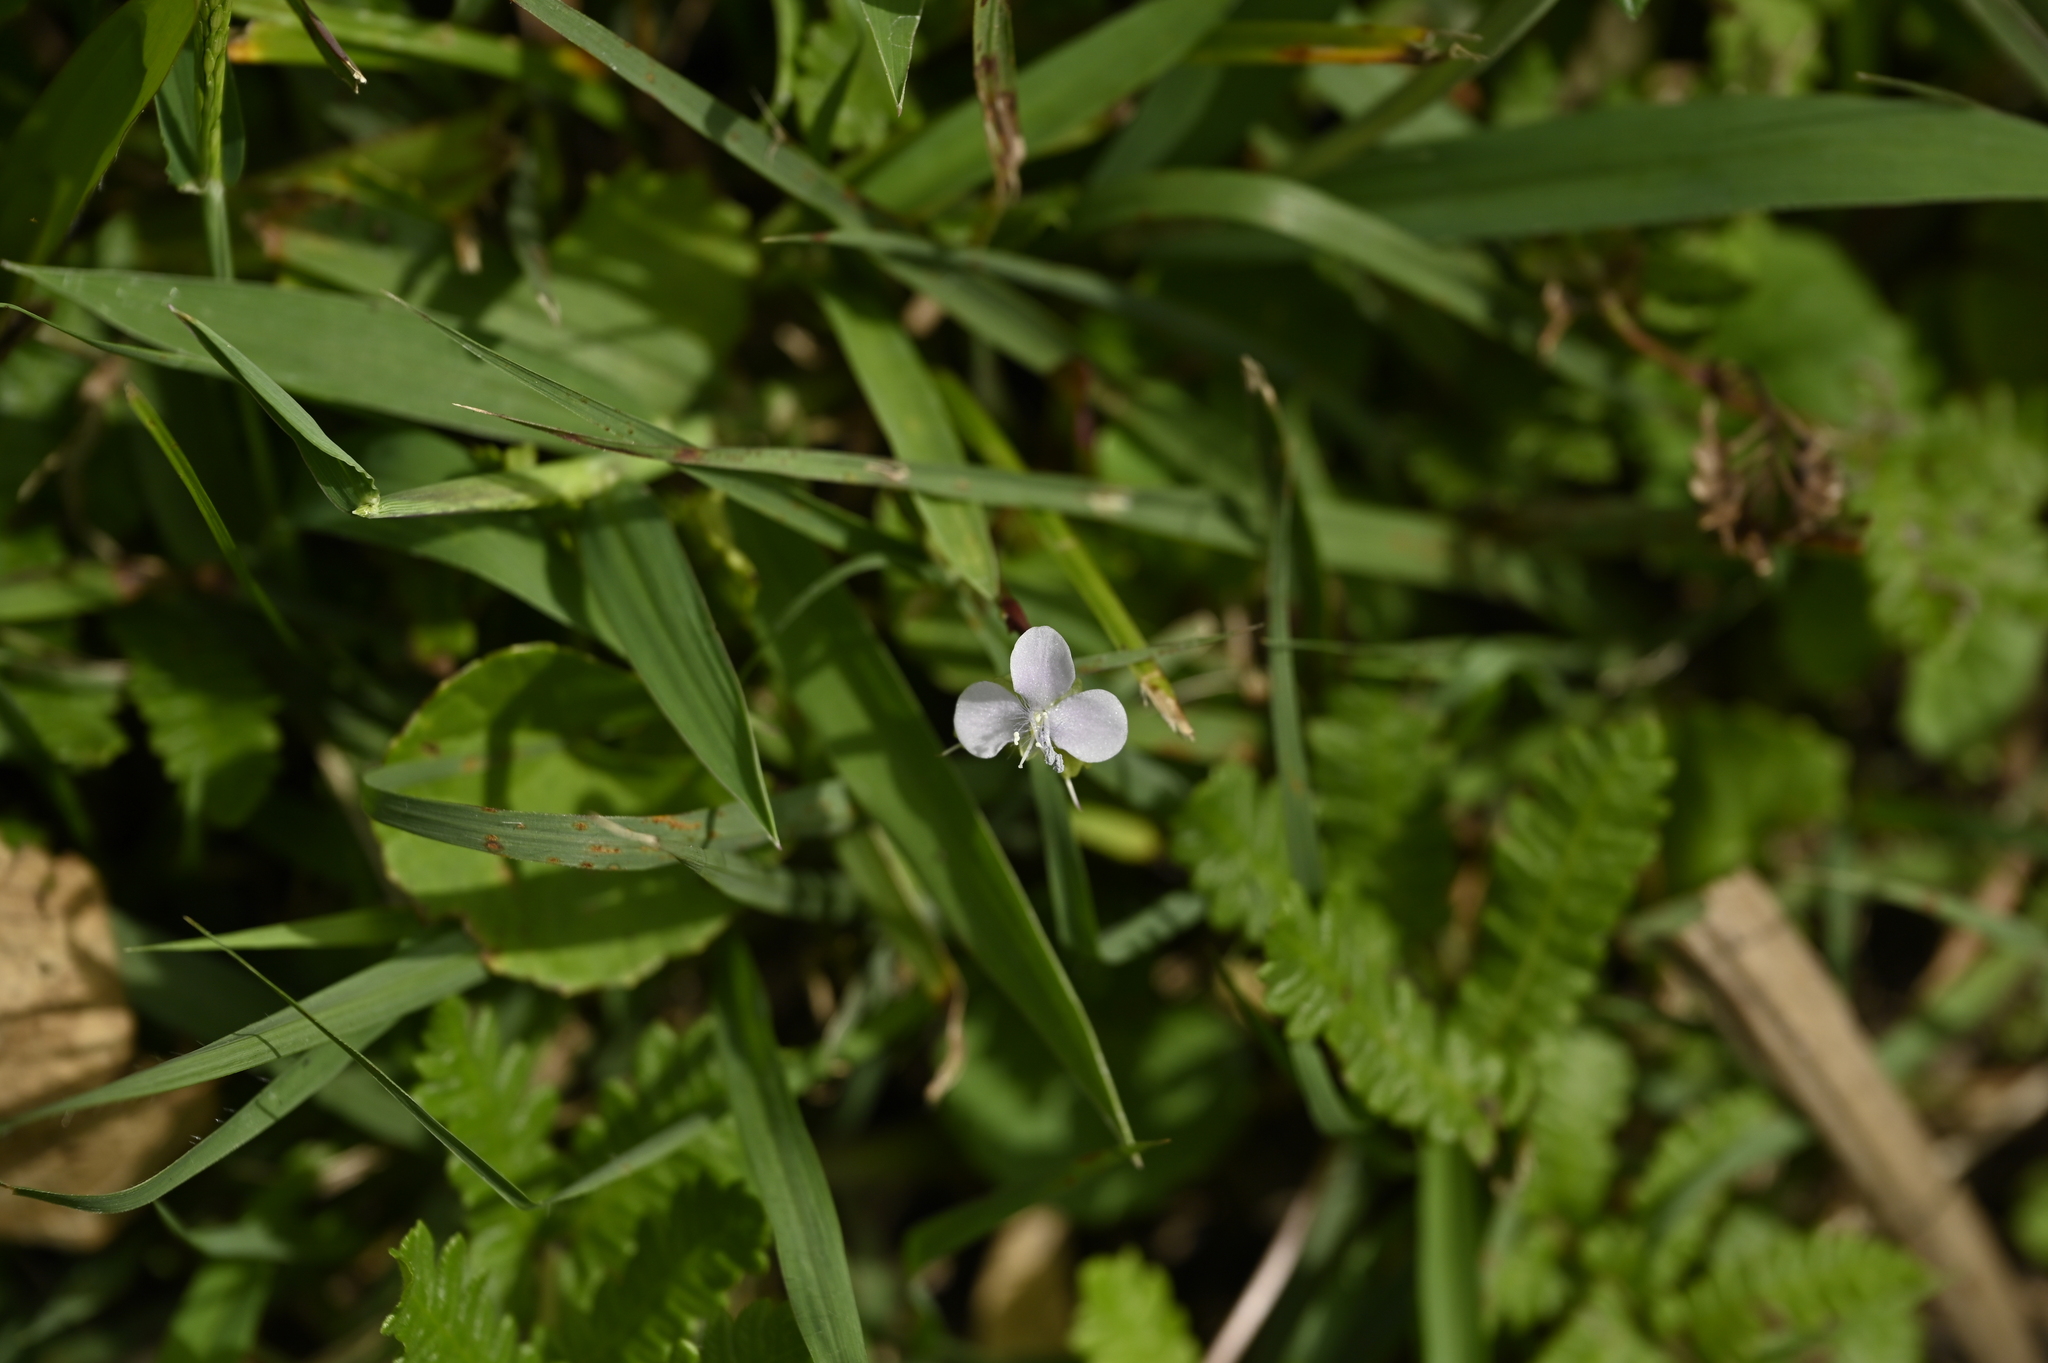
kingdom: Plantae
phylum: Tracheophyta
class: Liliopsida
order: Commelinales
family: Commelinaceae
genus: Murdannia
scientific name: Murdannia loriformis
